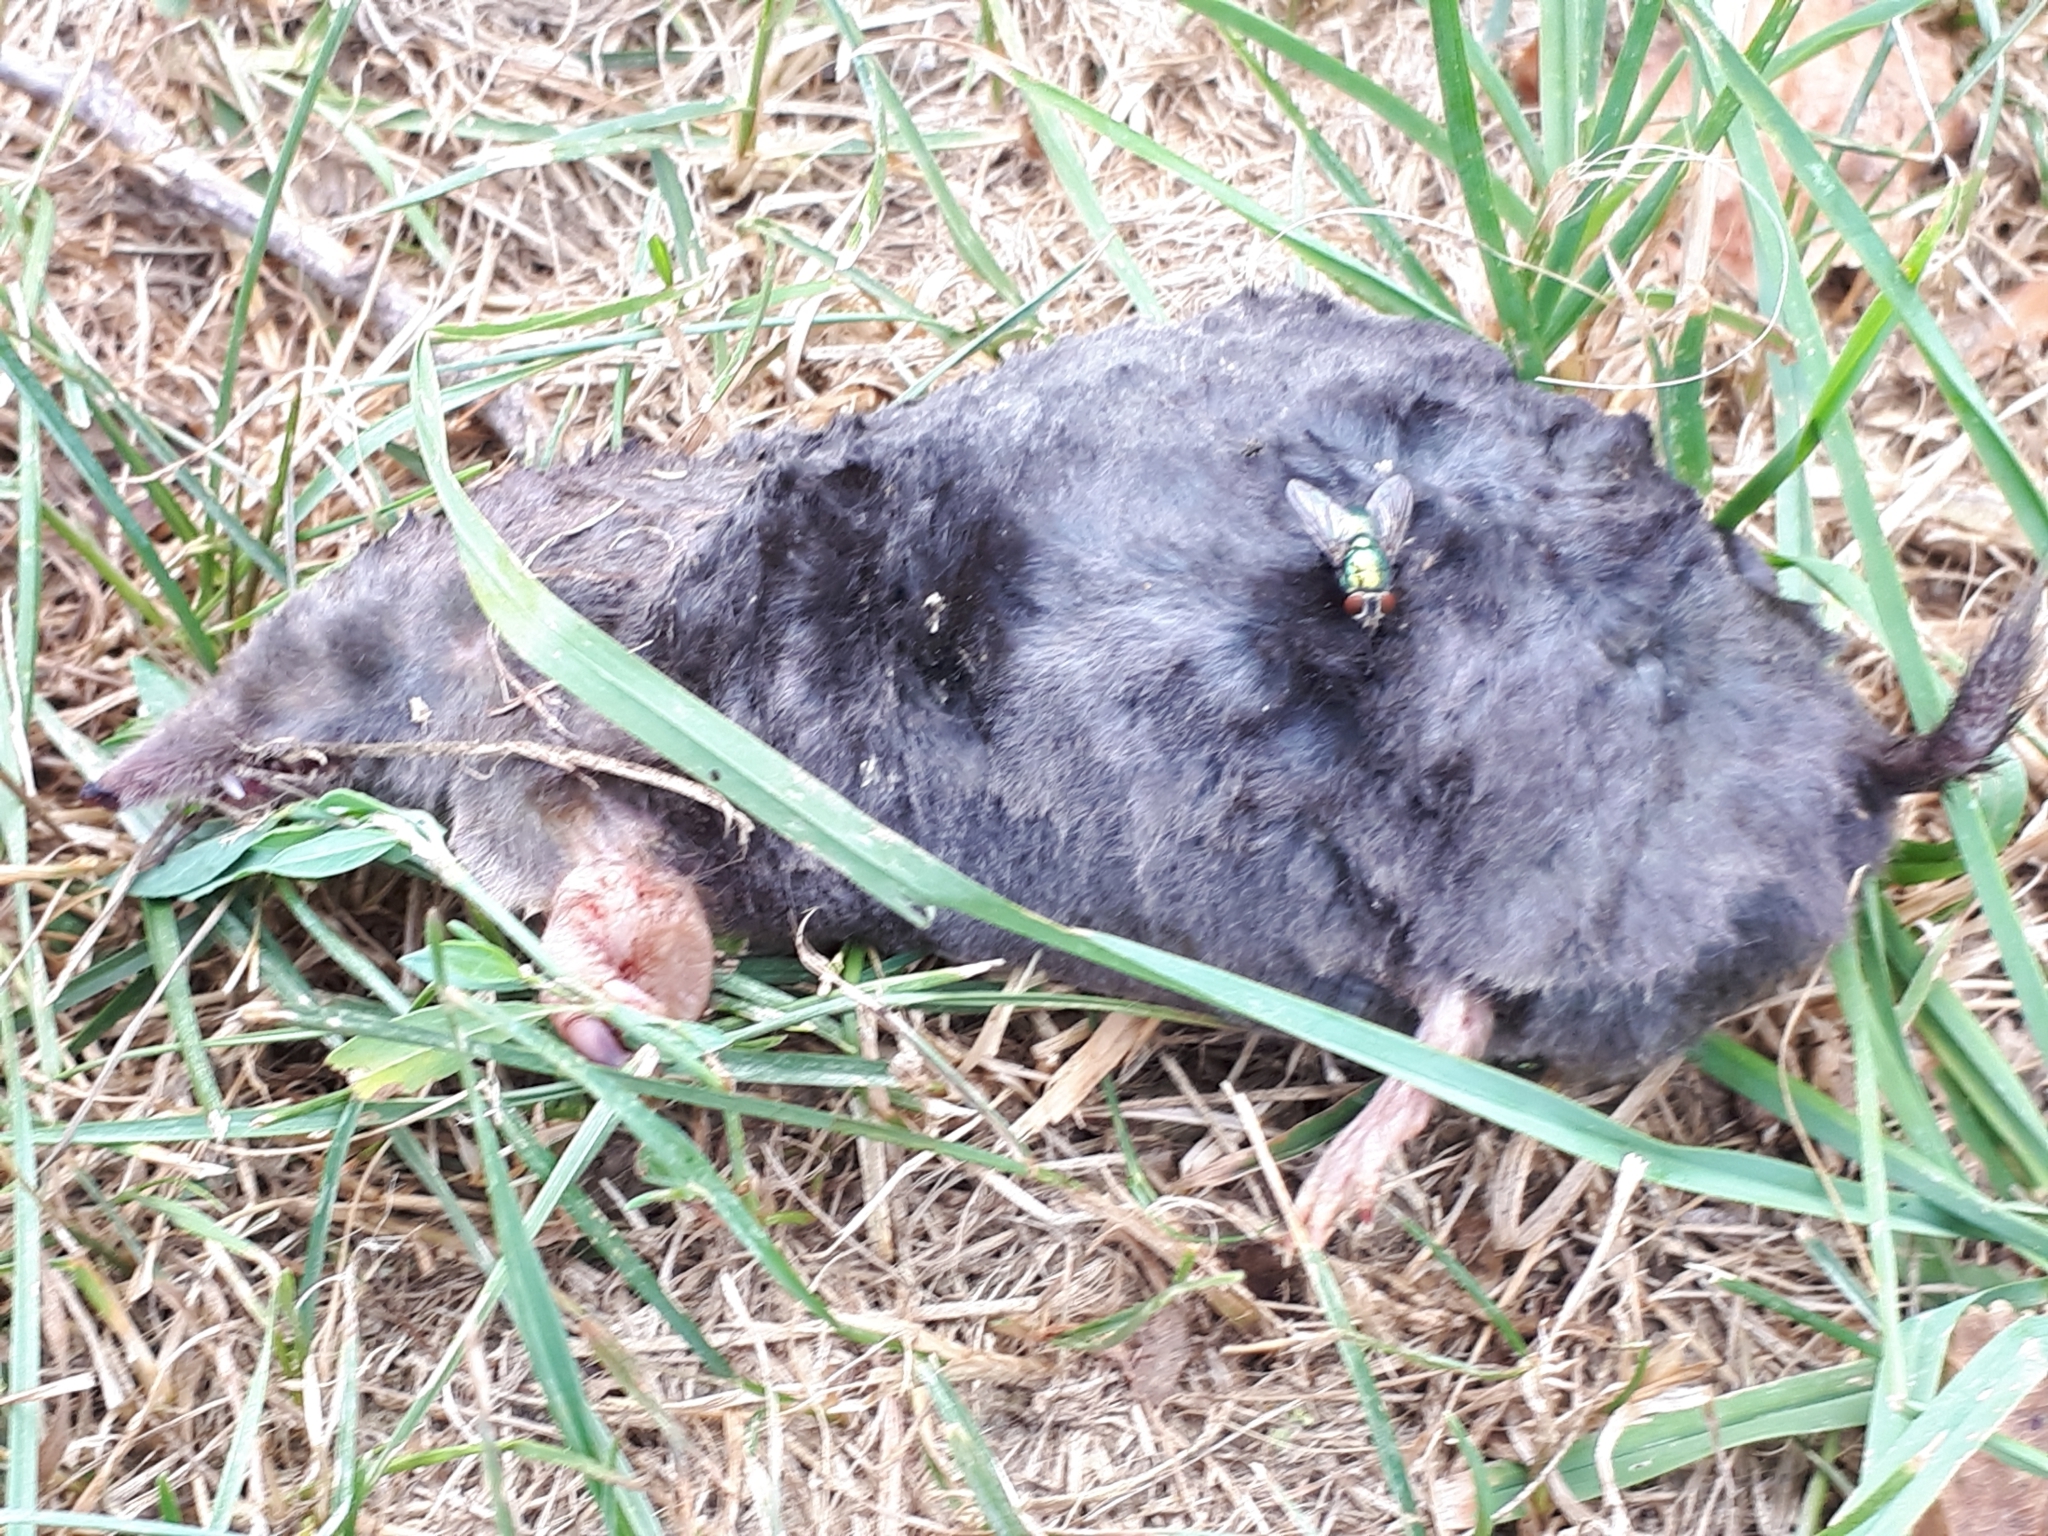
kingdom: Animalia
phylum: Chordata
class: Mammalia
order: Soricomorpha
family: Talpidae
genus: Talpa
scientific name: Talpa europaea
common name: European mole
